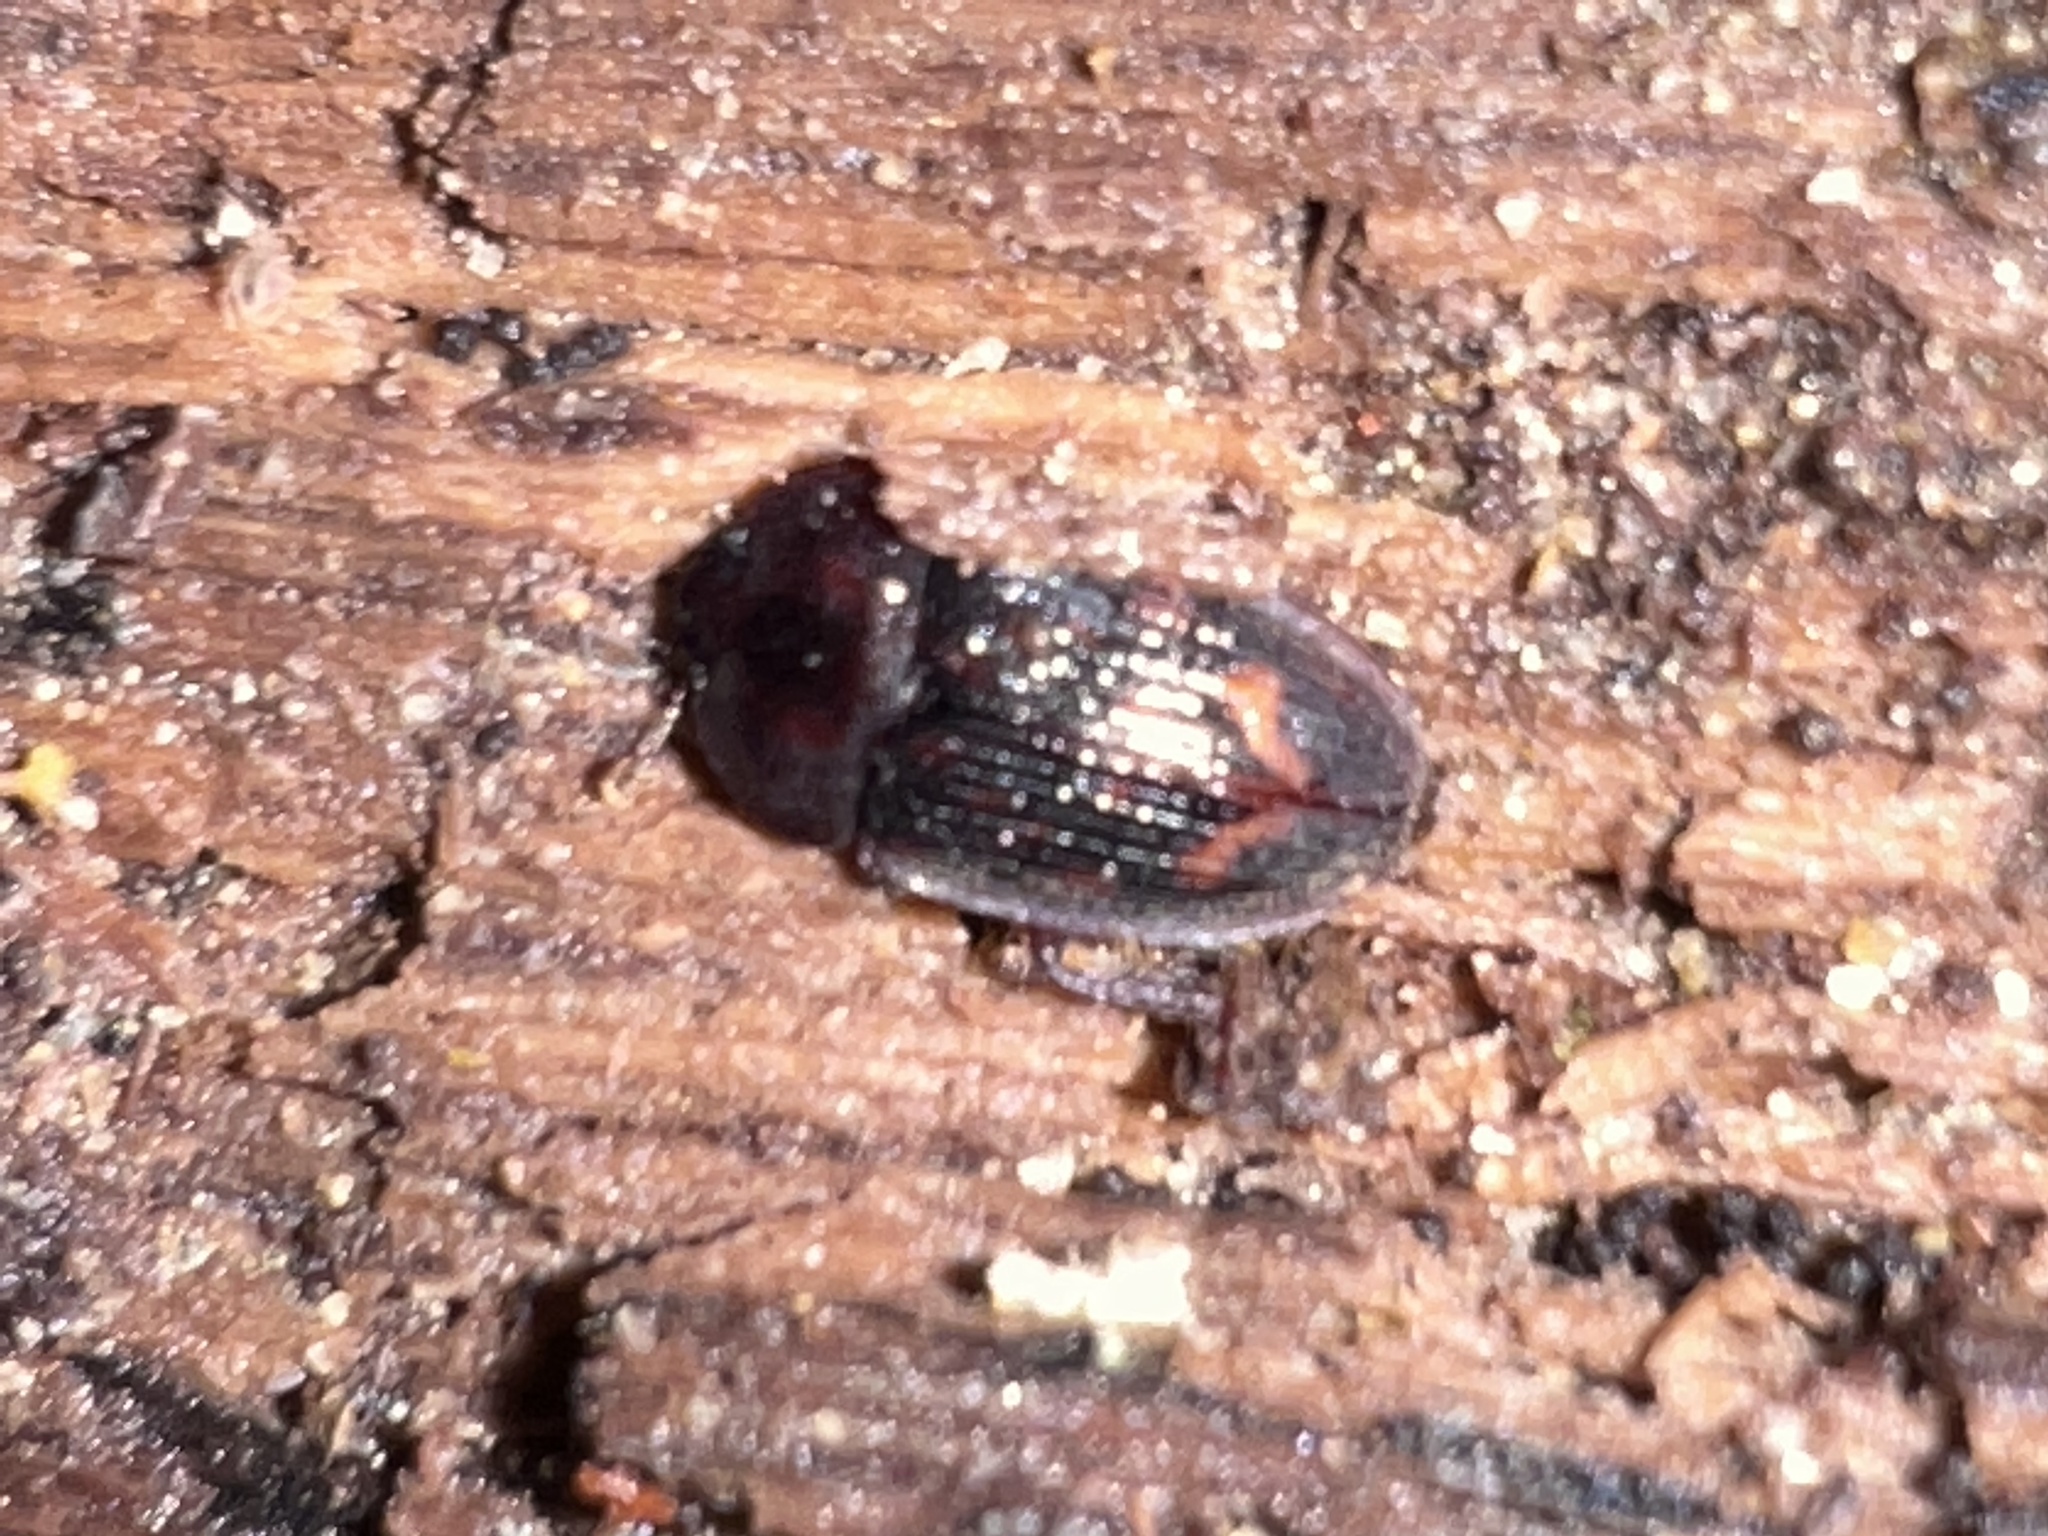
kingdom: Animalia
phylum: Arthropoda
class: Insecta
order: Coleoptera
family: Nitidulidae
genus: Phenolia
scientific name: Phenolia grossa
